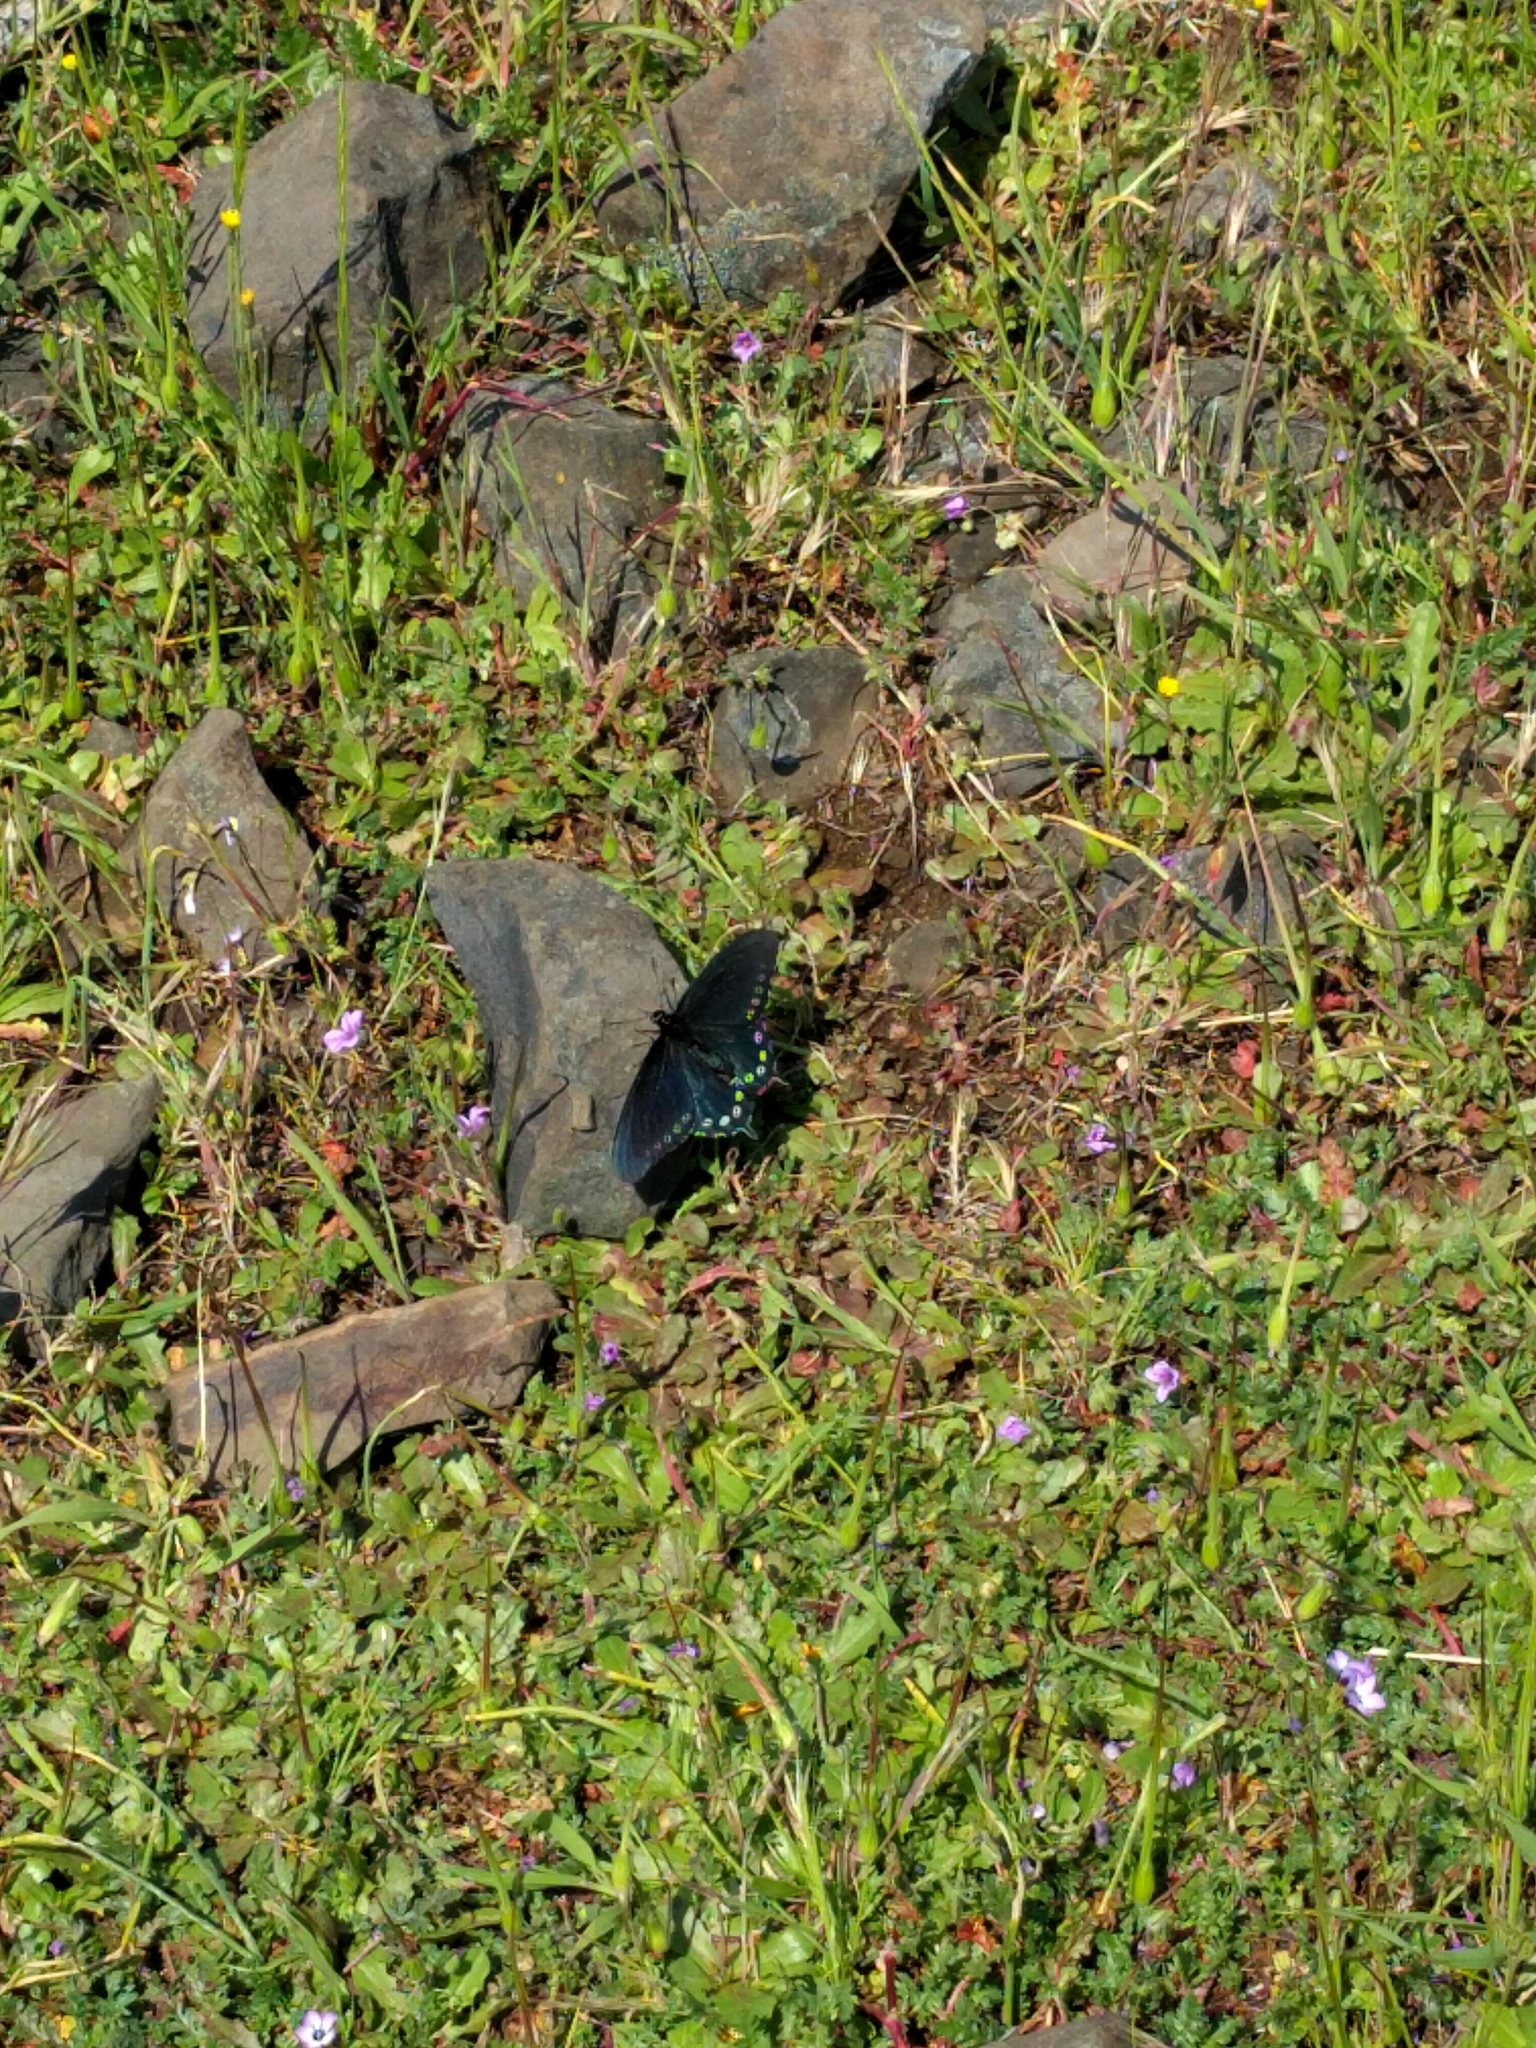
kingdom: Animalia
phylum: Arthropoda
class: Insecta
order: Lepidoptera
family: Papilionidae
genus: Battus
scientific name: Battus philenor
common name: Pipevine swallowtail
